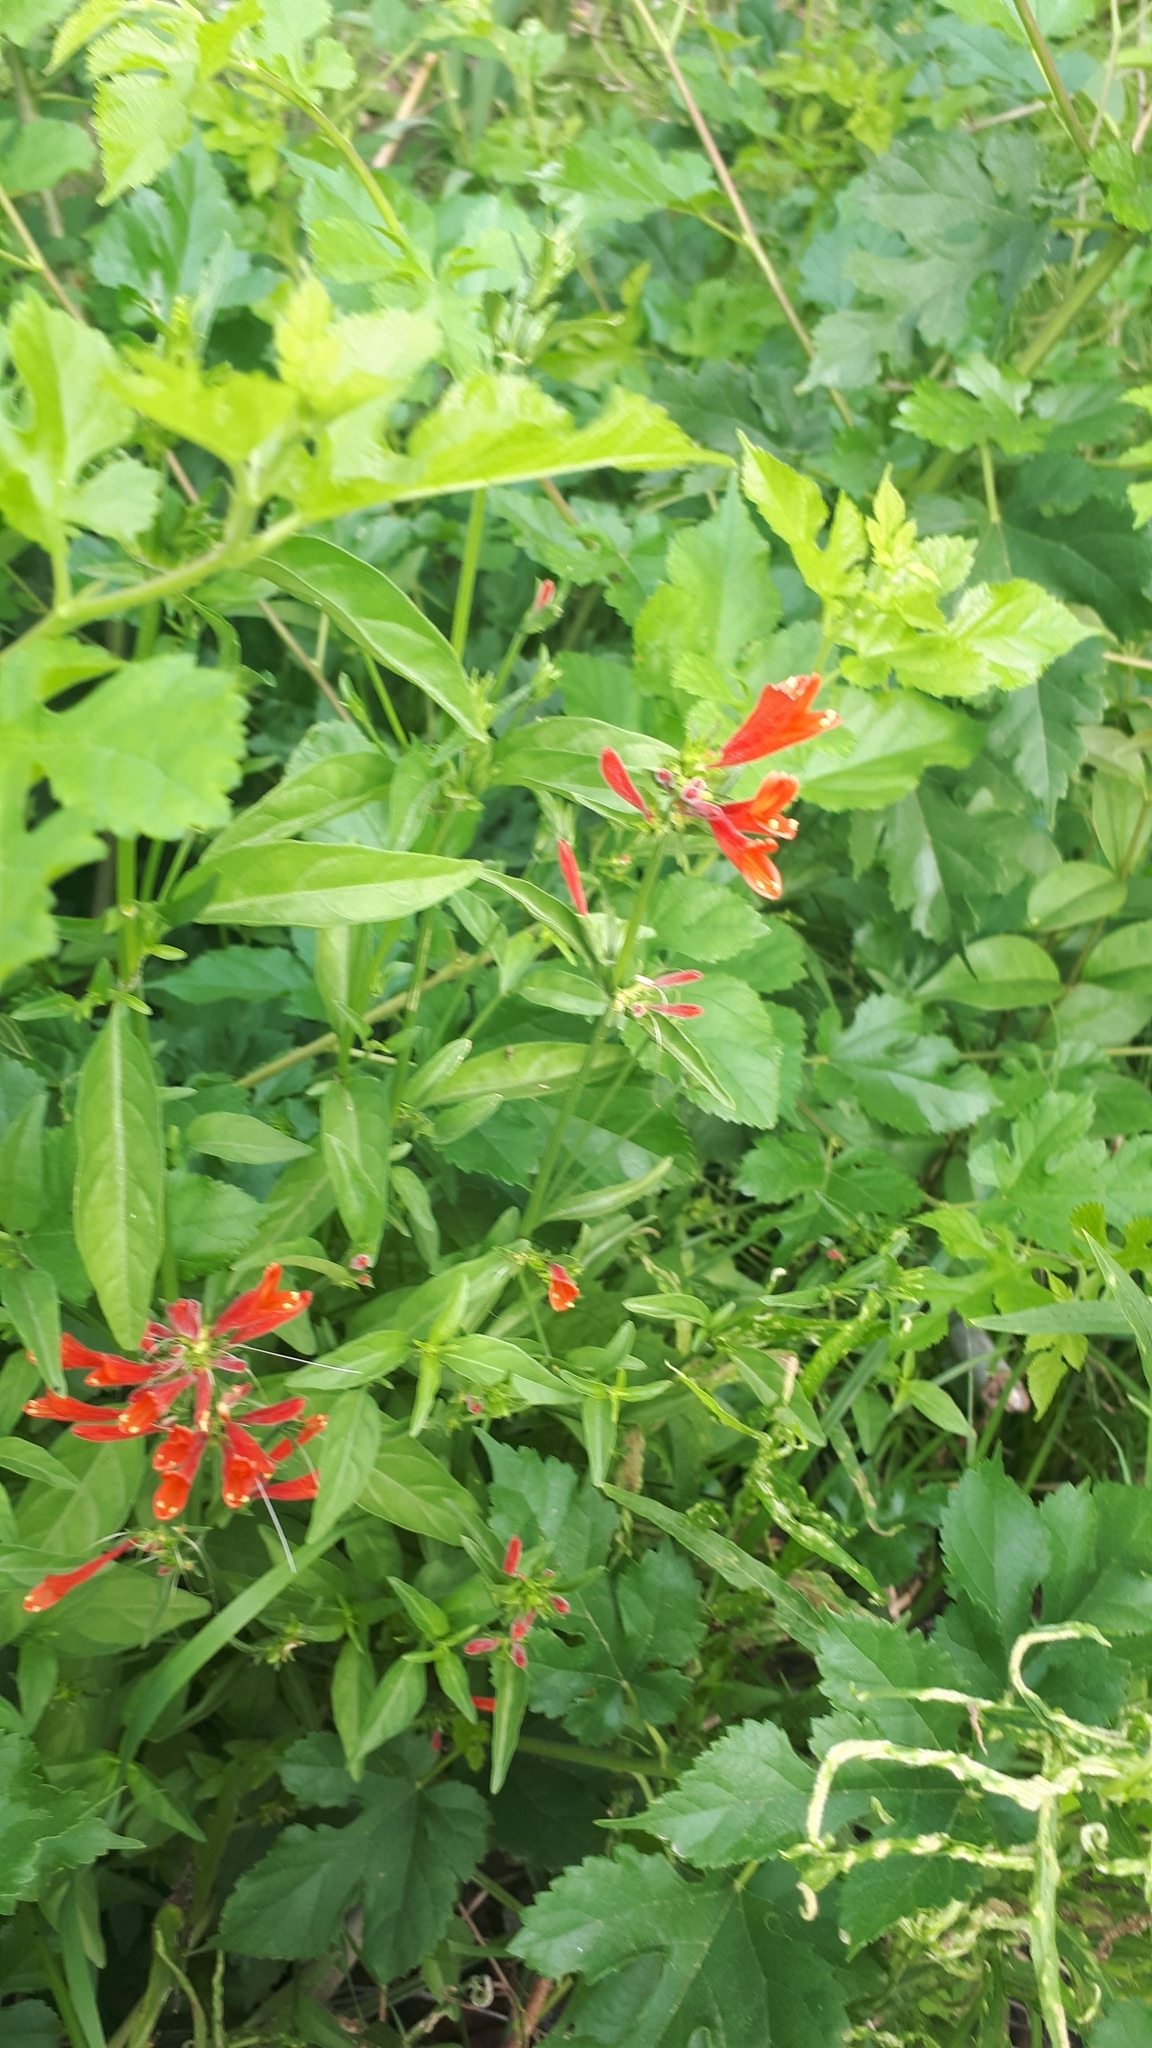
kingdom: Plantae
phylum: Tracheophyta
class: Magnoliopsida
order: Lamiales
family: Acanthaceae
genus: Dicliptera
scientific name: Dicliptera squarrosa
